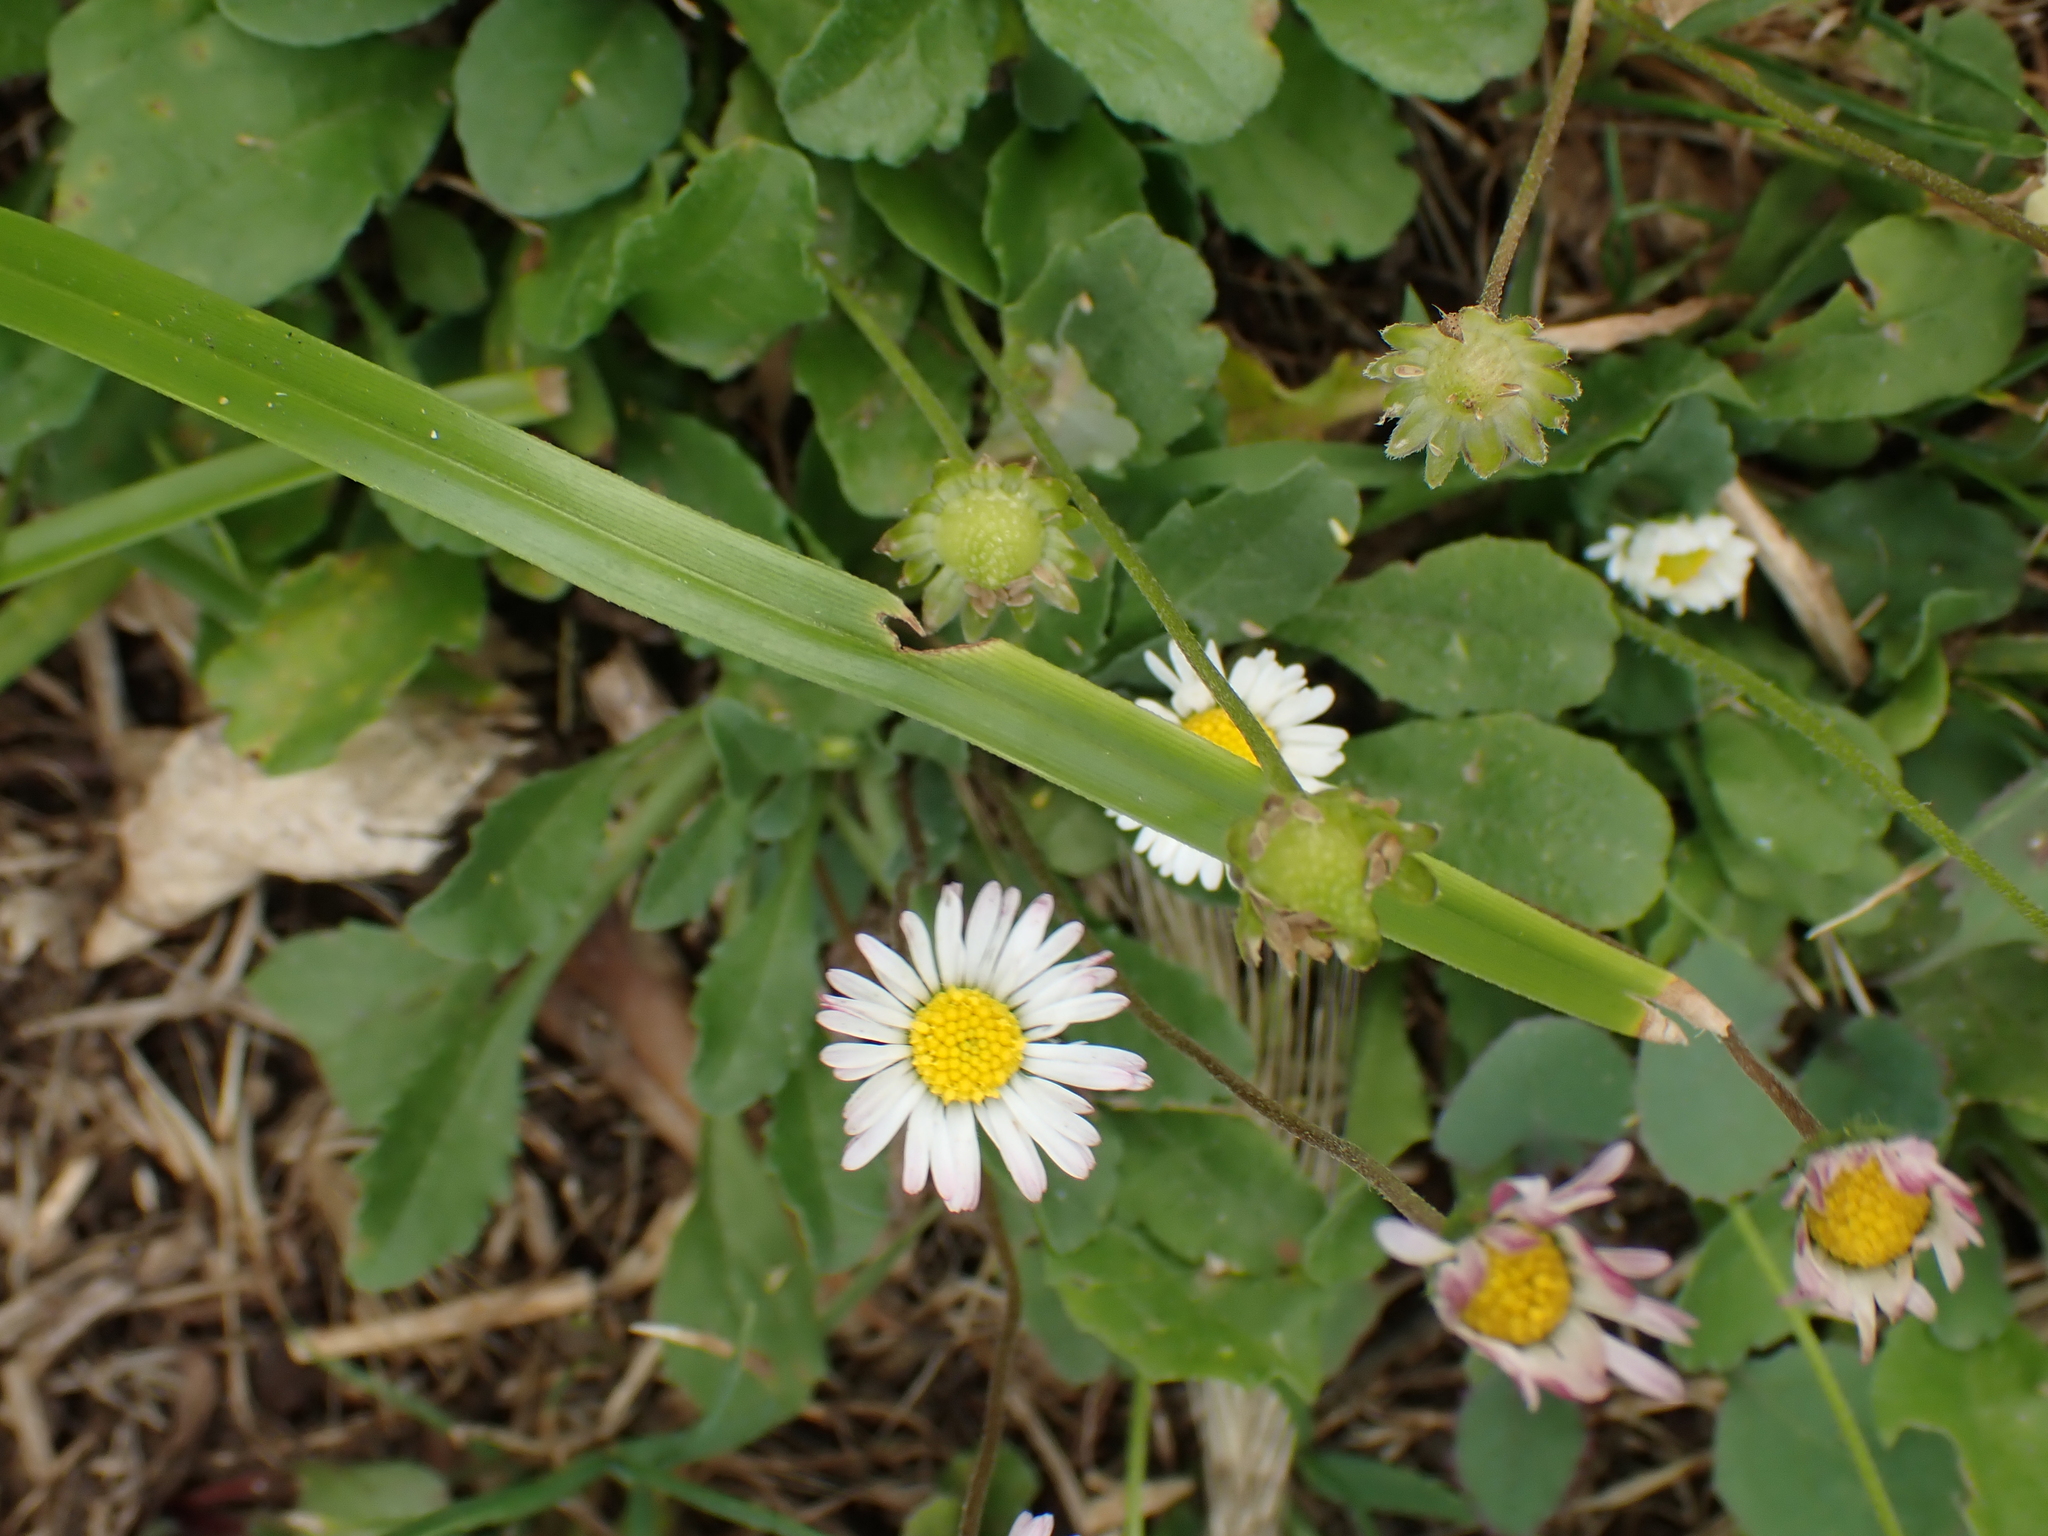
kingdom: Plantae
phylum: Tracheophyta
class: Magnoliopsida
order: Asterales
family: Asteraceae
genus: Bellis
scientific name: Bellis perennis
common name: Lawndaisy
